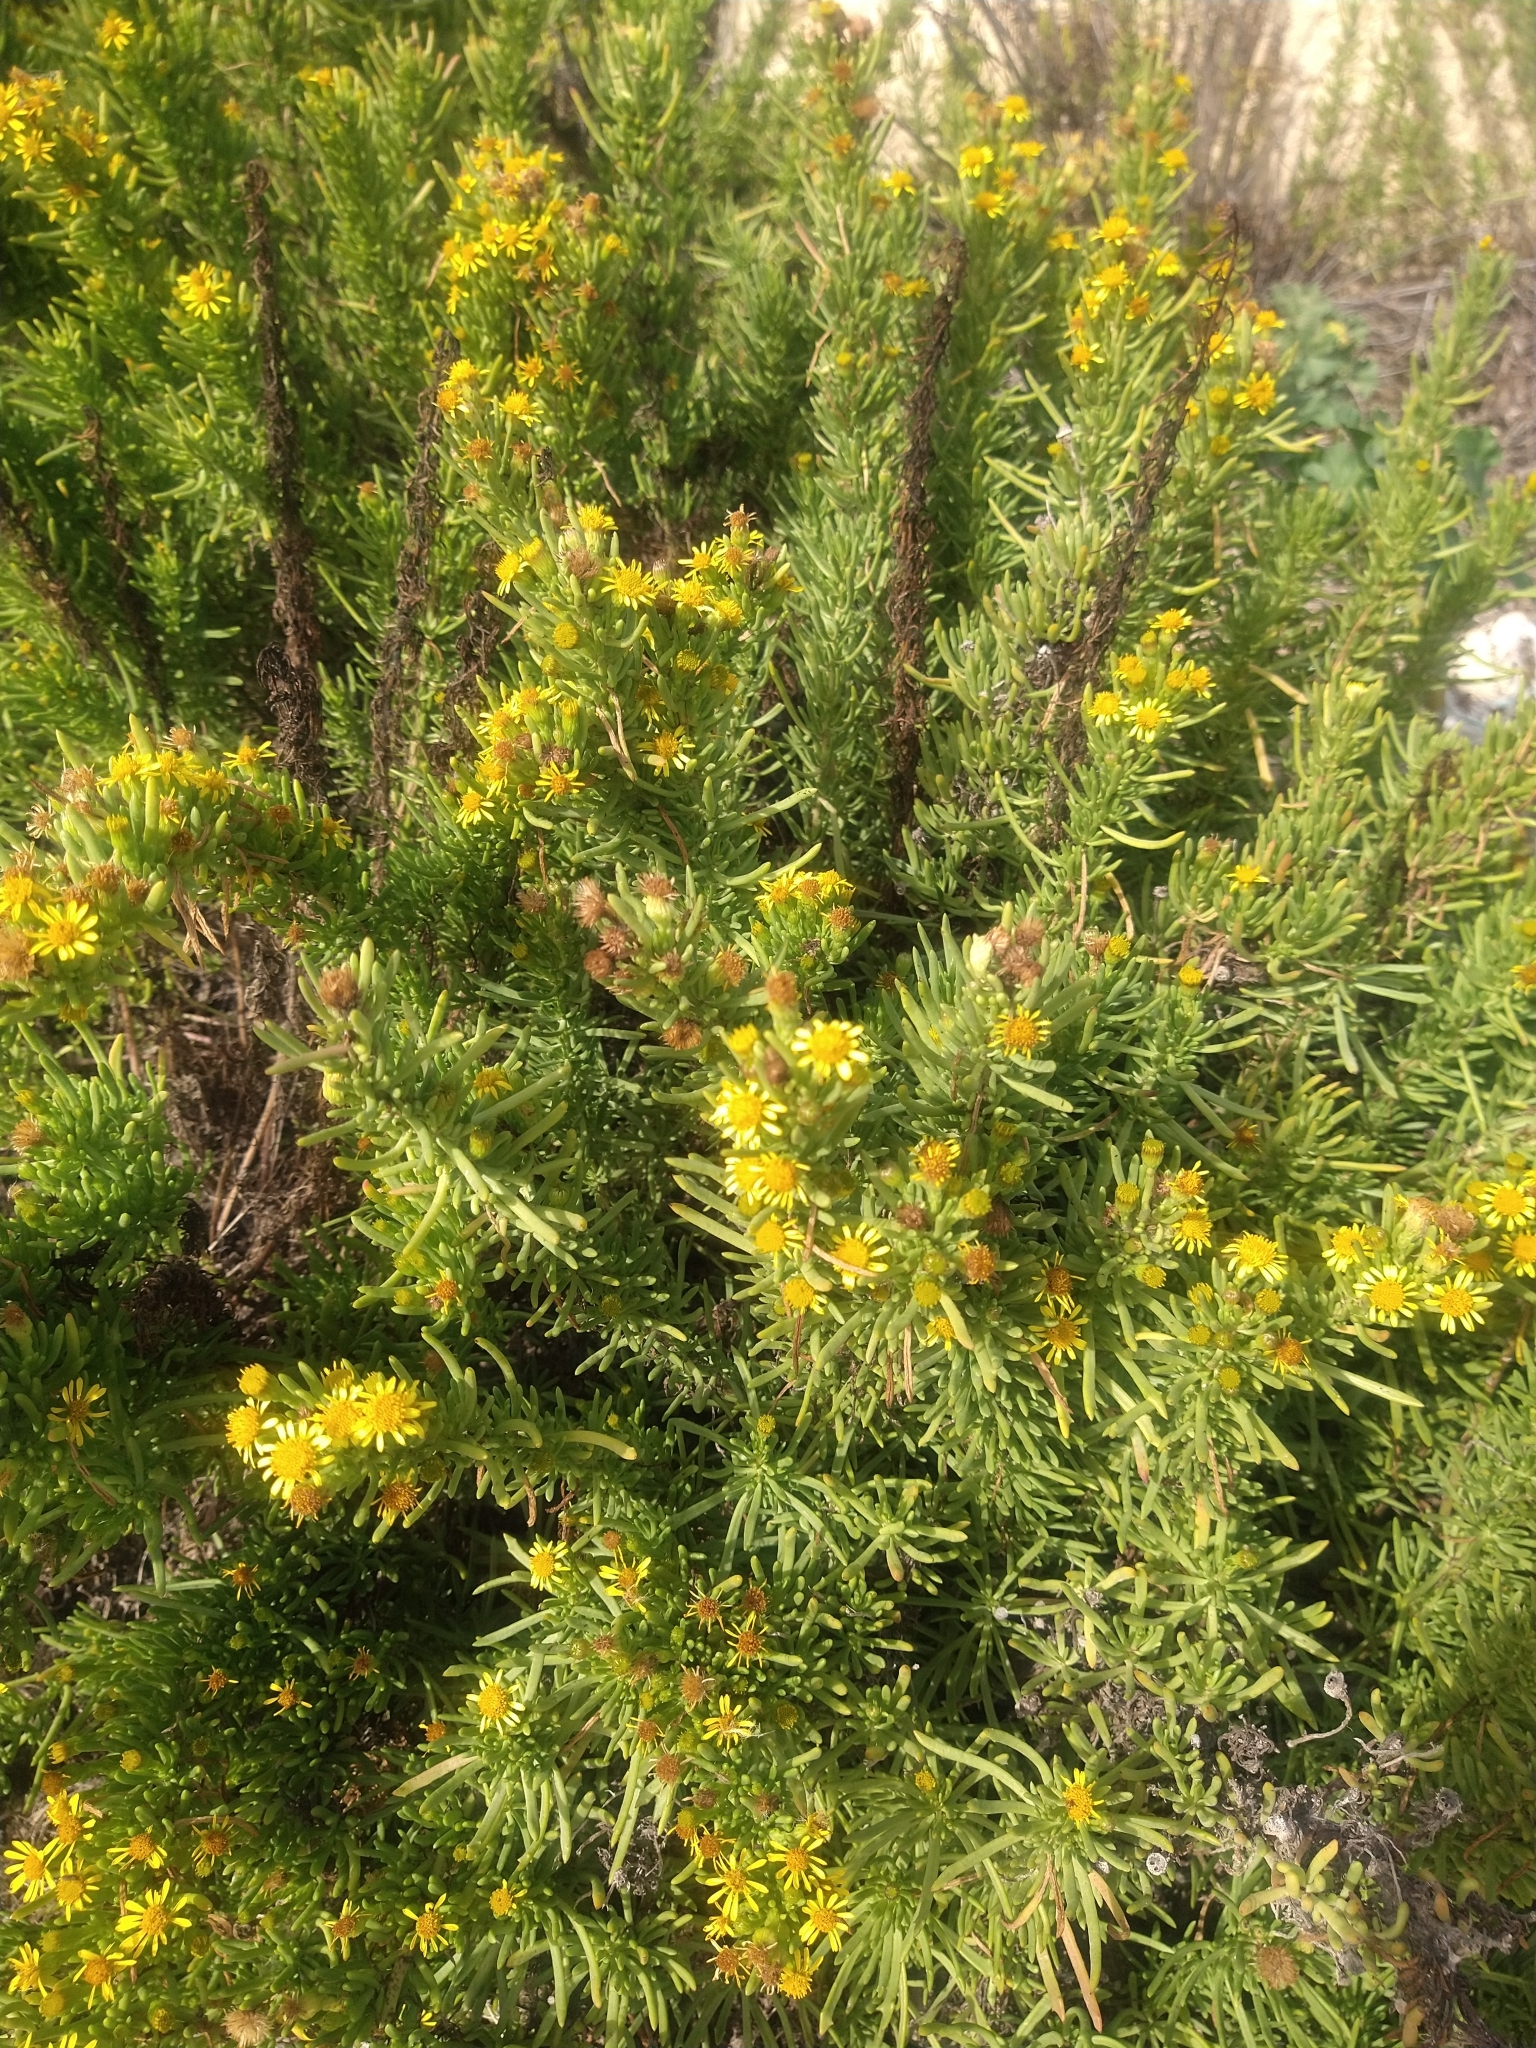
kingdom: Plantae
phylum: Tracheophyta
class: Magnoliopsida
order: Asterales
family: Asteraceae
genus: Limbarda
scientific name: Limbarda crithmoides
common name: Golden samphire
